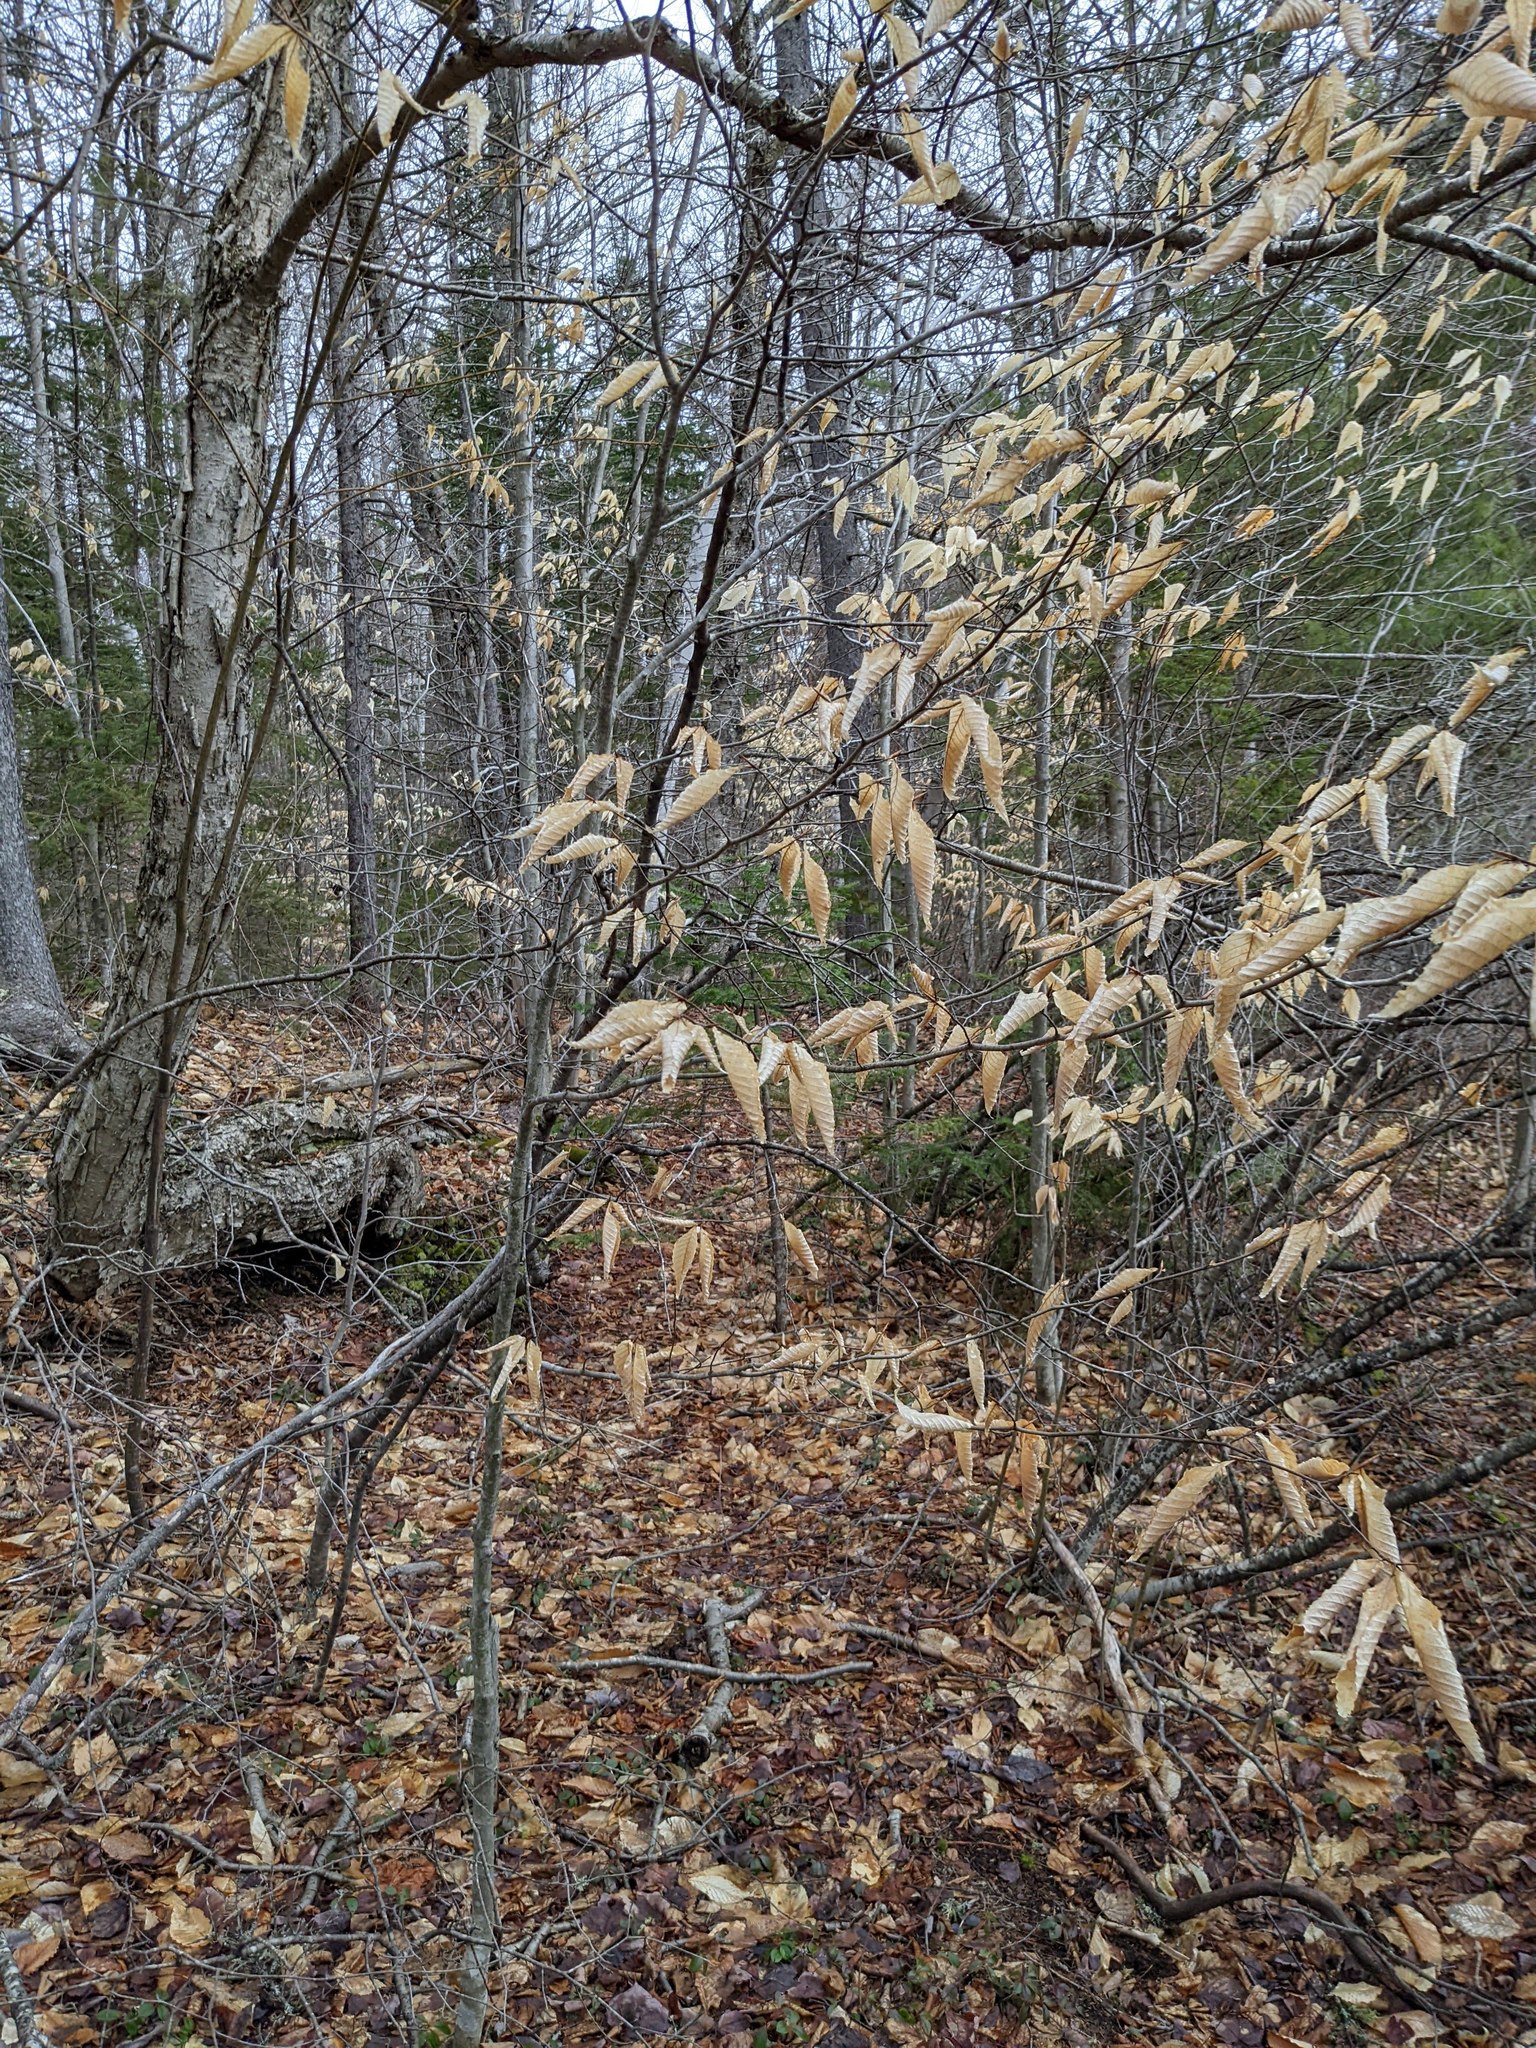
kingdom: Plantae
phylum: Tracheophyta
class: Magnoliopsida
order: Fagales
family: Fagaceae
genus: Fagus
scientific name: Fagus grandifolia
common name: American beech
